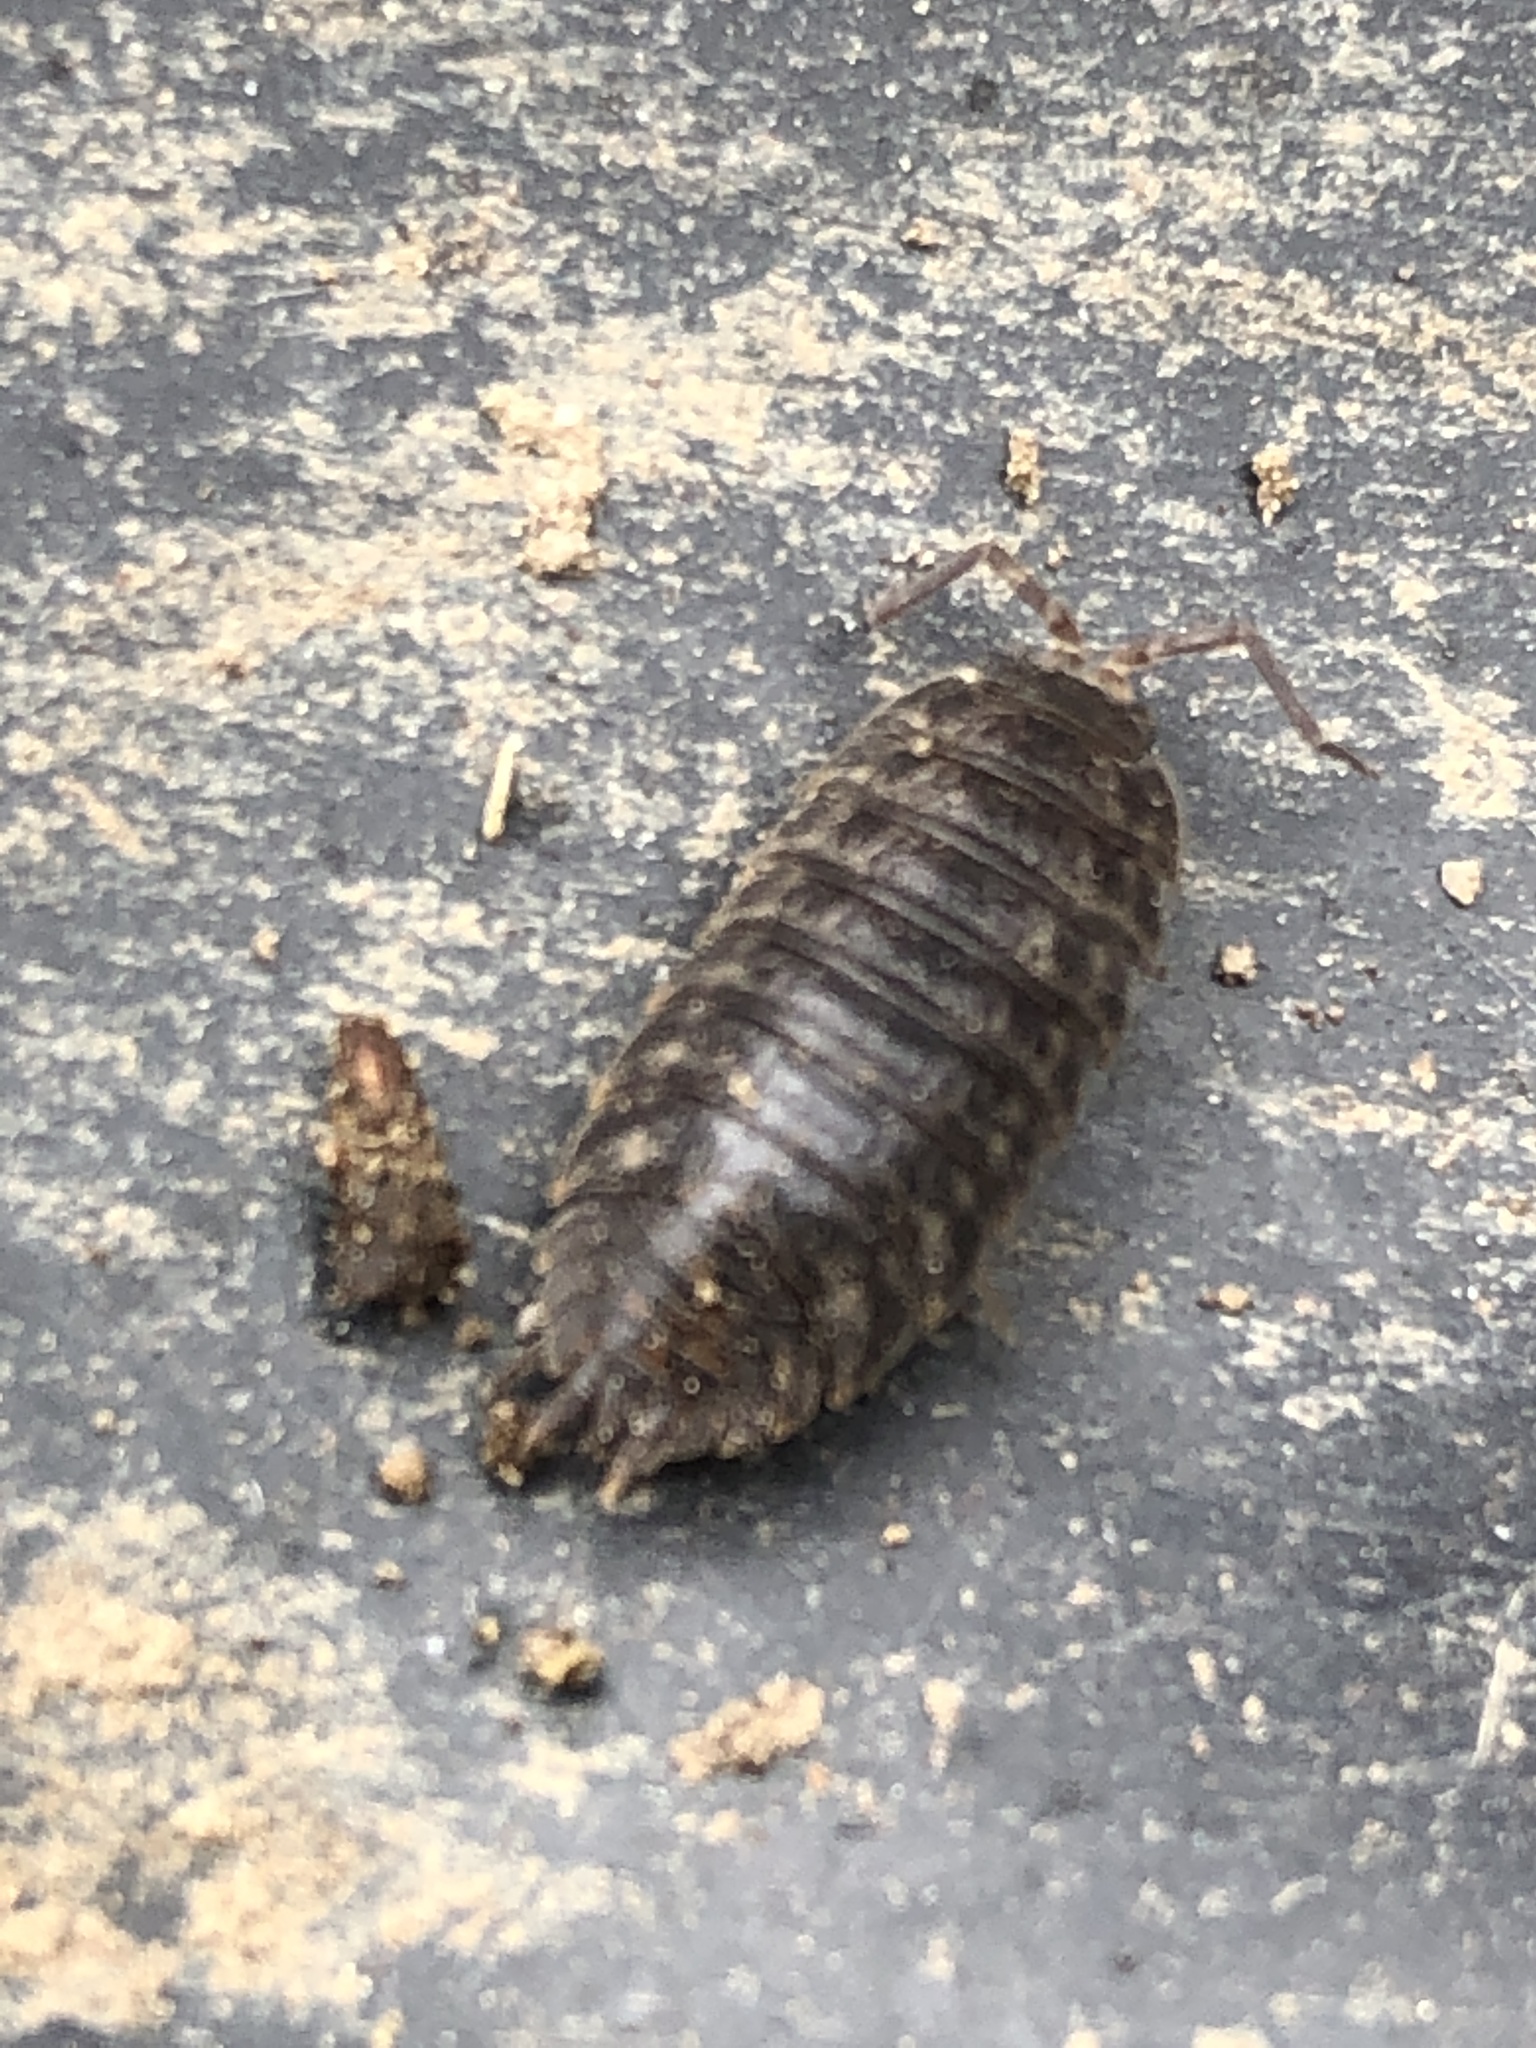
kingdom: Animalia
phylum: Arthropoda
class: Malacostraca
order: Isopoda
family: Trachelipodidae
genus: Trachelipus
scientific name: Trachelipus rathkii
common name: Isopod
